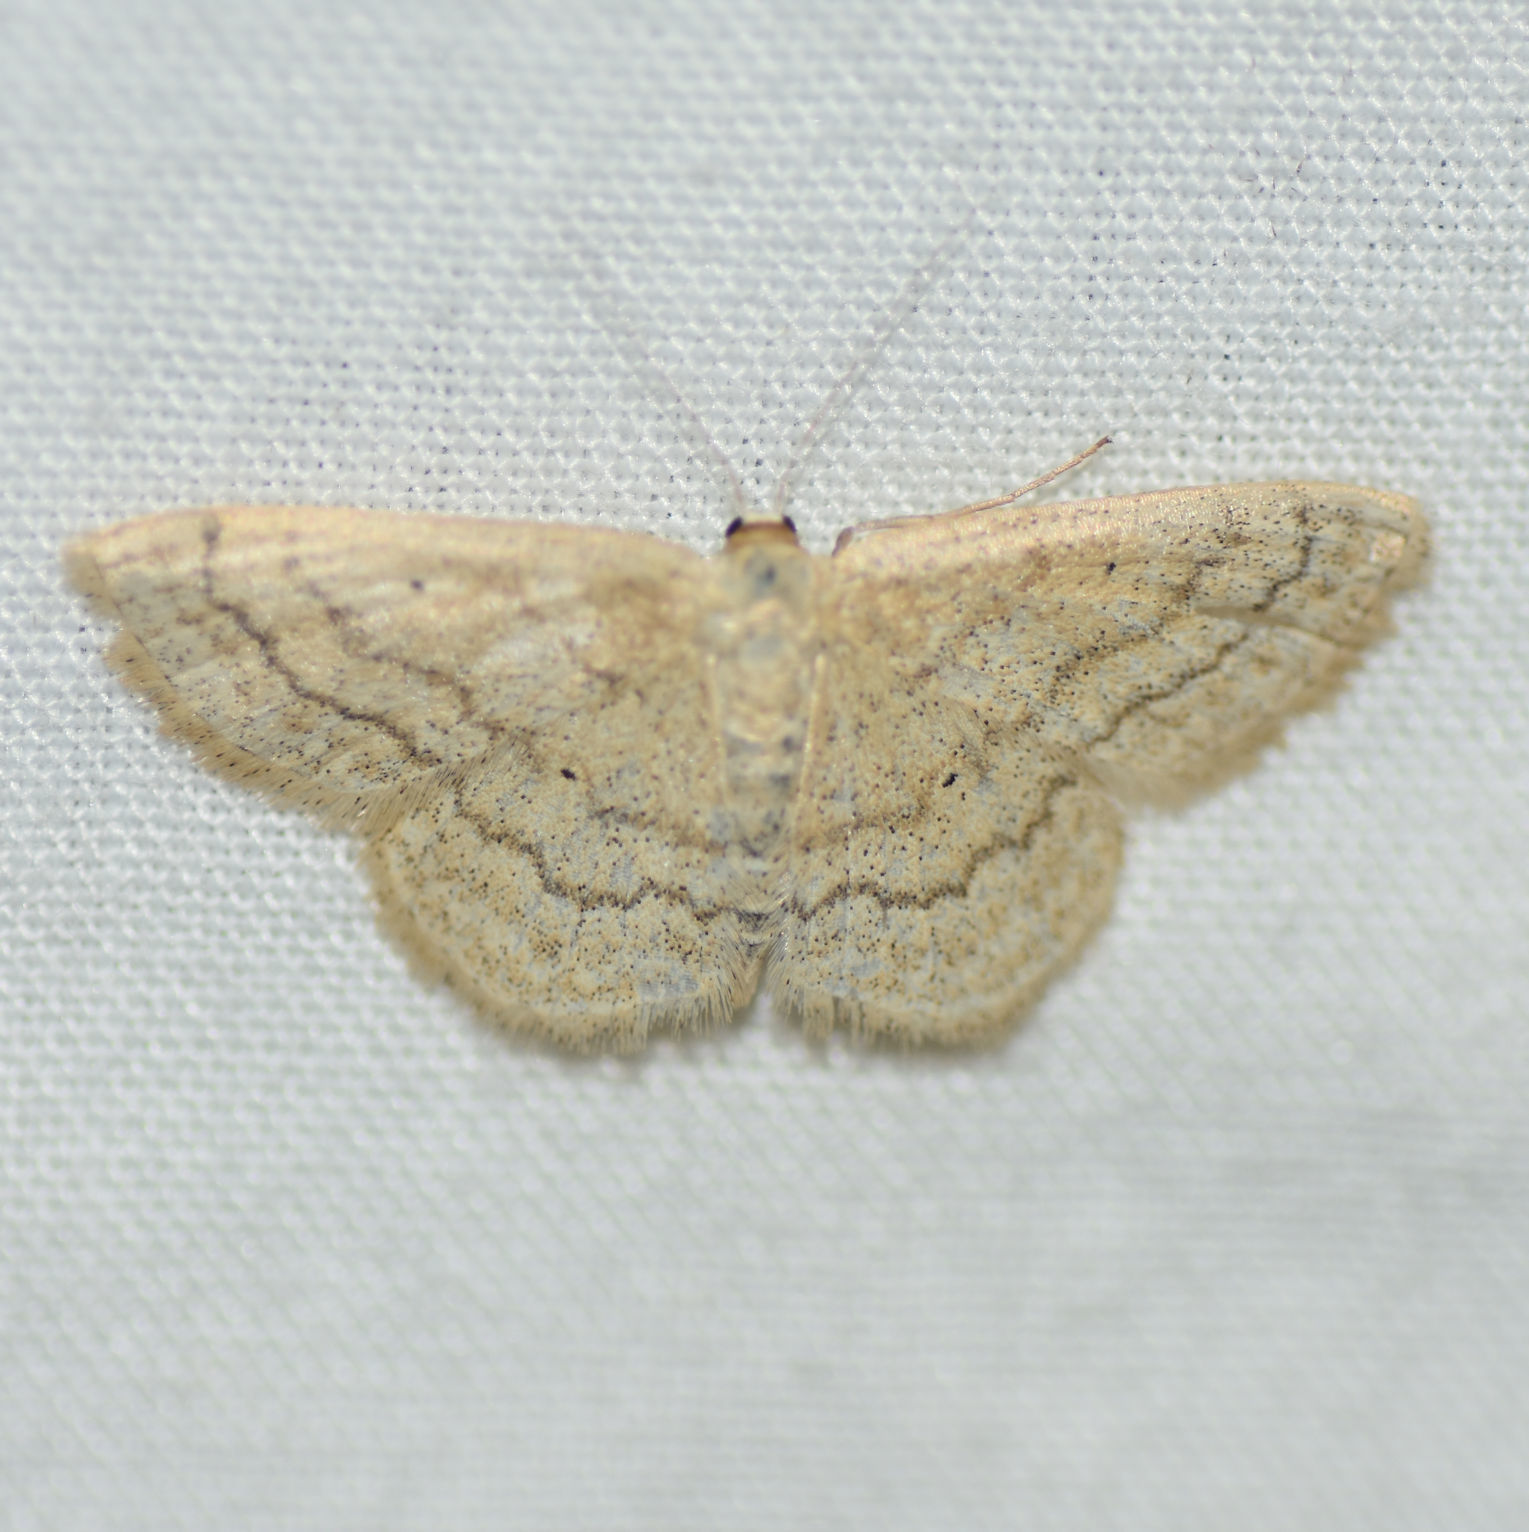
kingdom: Animalia
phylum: Arthropoda
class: Insecta
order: Lepidoptera
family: Geometridae
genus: Scopula
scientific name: Scopula inductata
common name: Soft-lined wave
